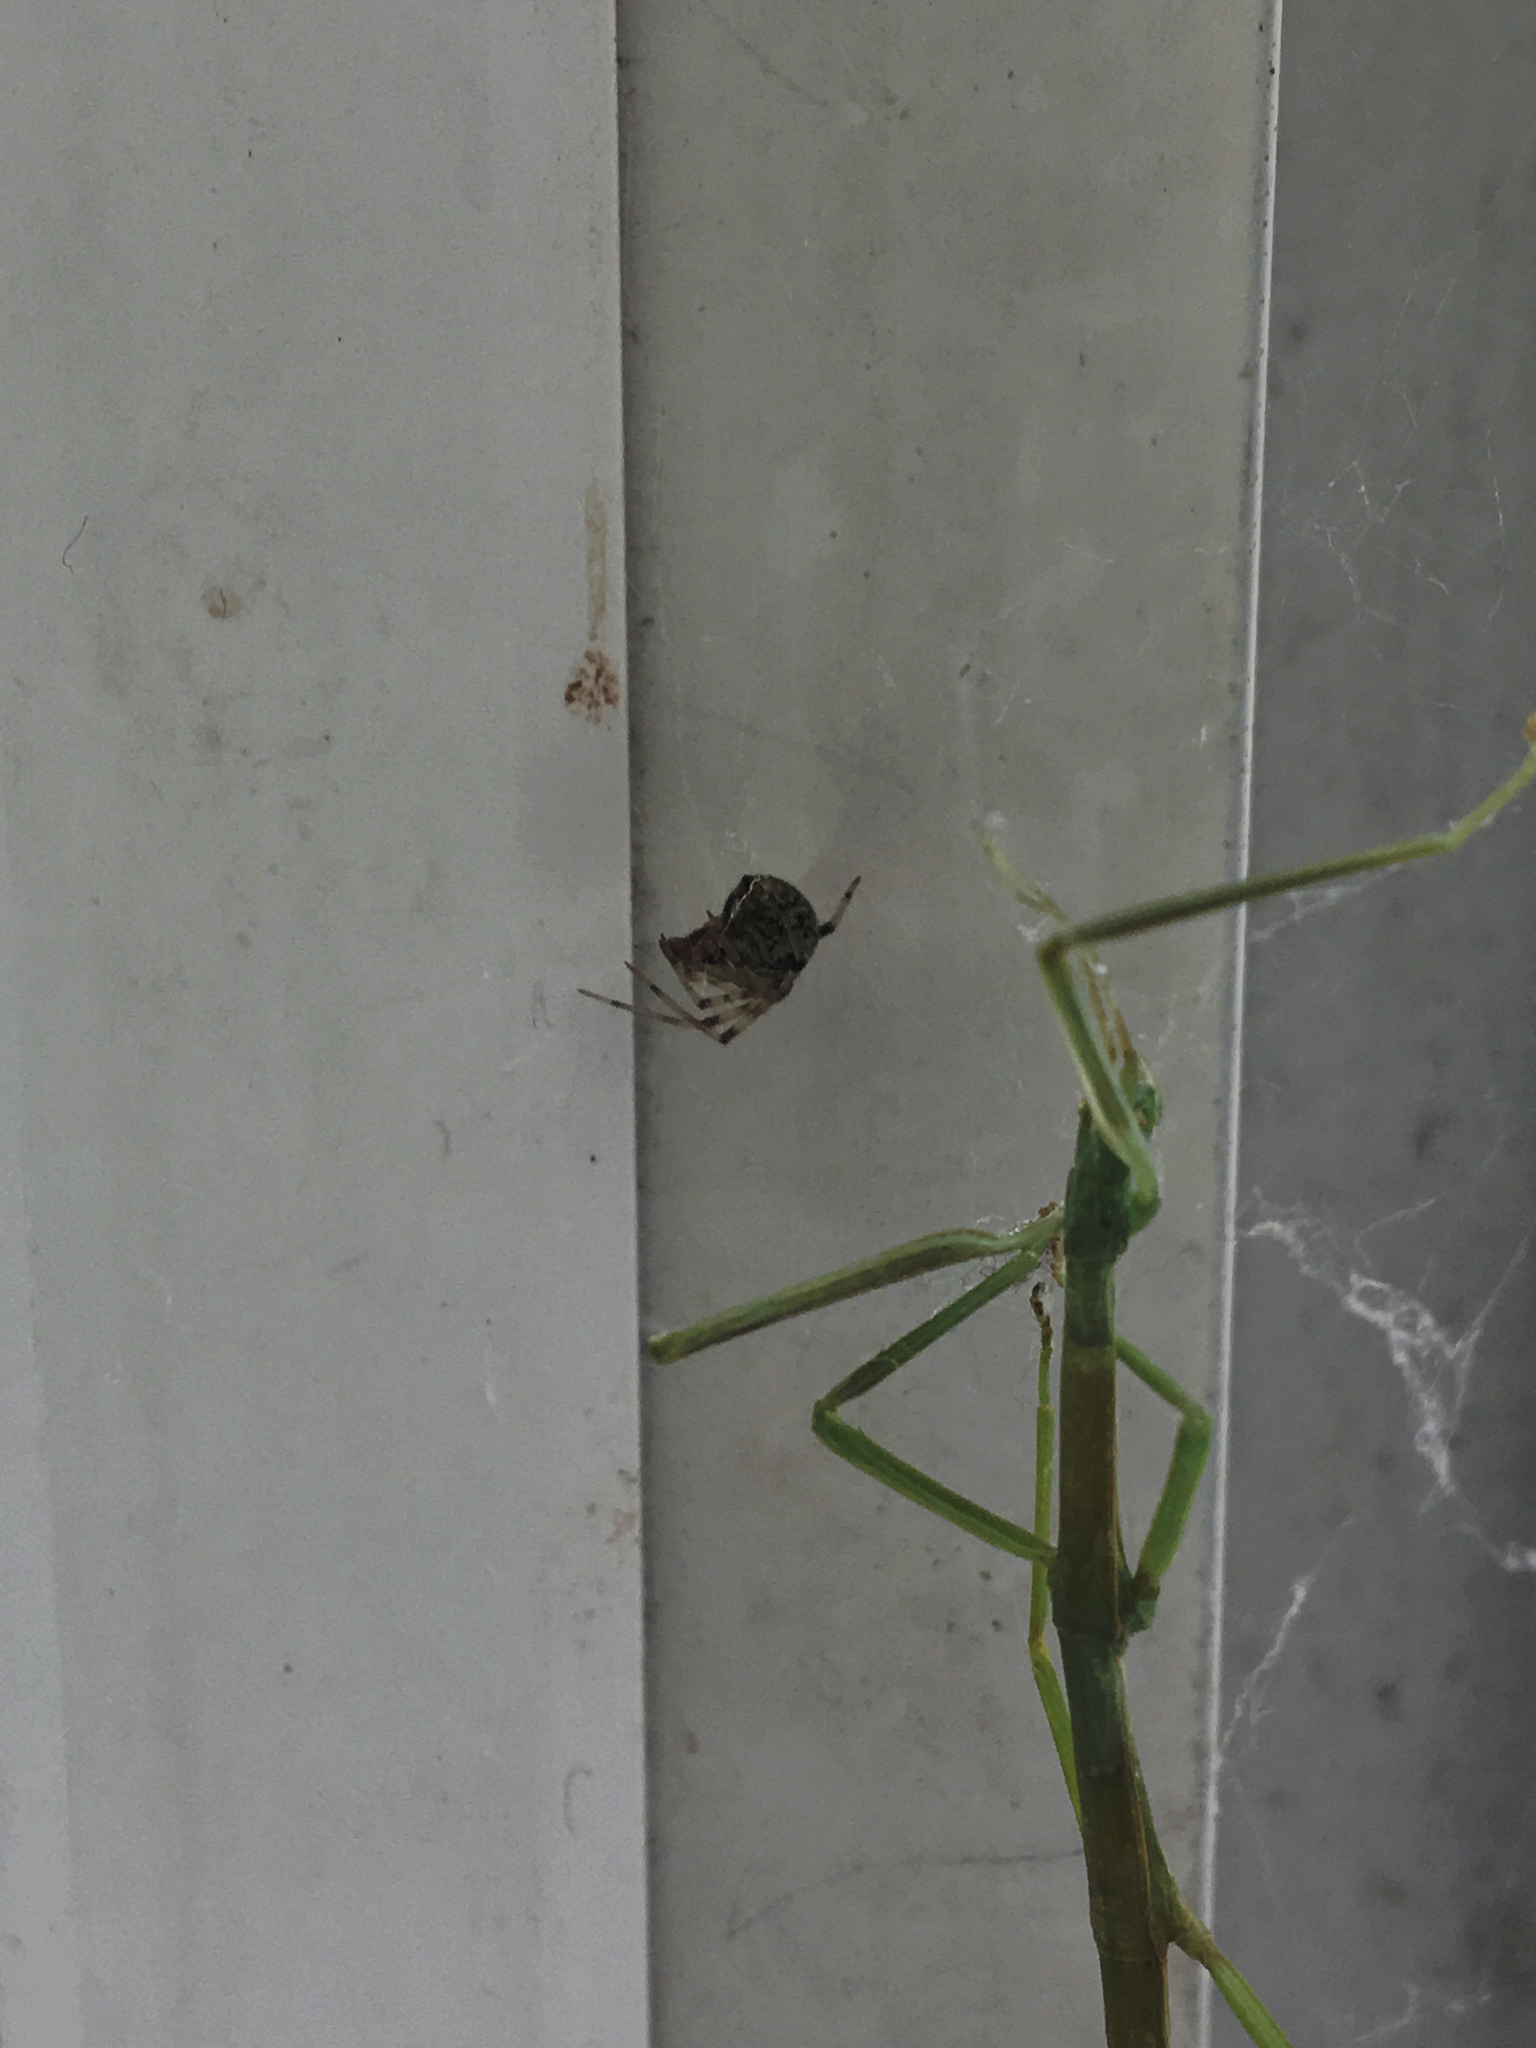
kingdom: Animalia
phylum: Arthropoda
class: Insecta
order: Phasmida
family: Diapheromeridae
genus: Diapheromera
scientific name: Diapheromera femorata
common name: Common american walkingstick
